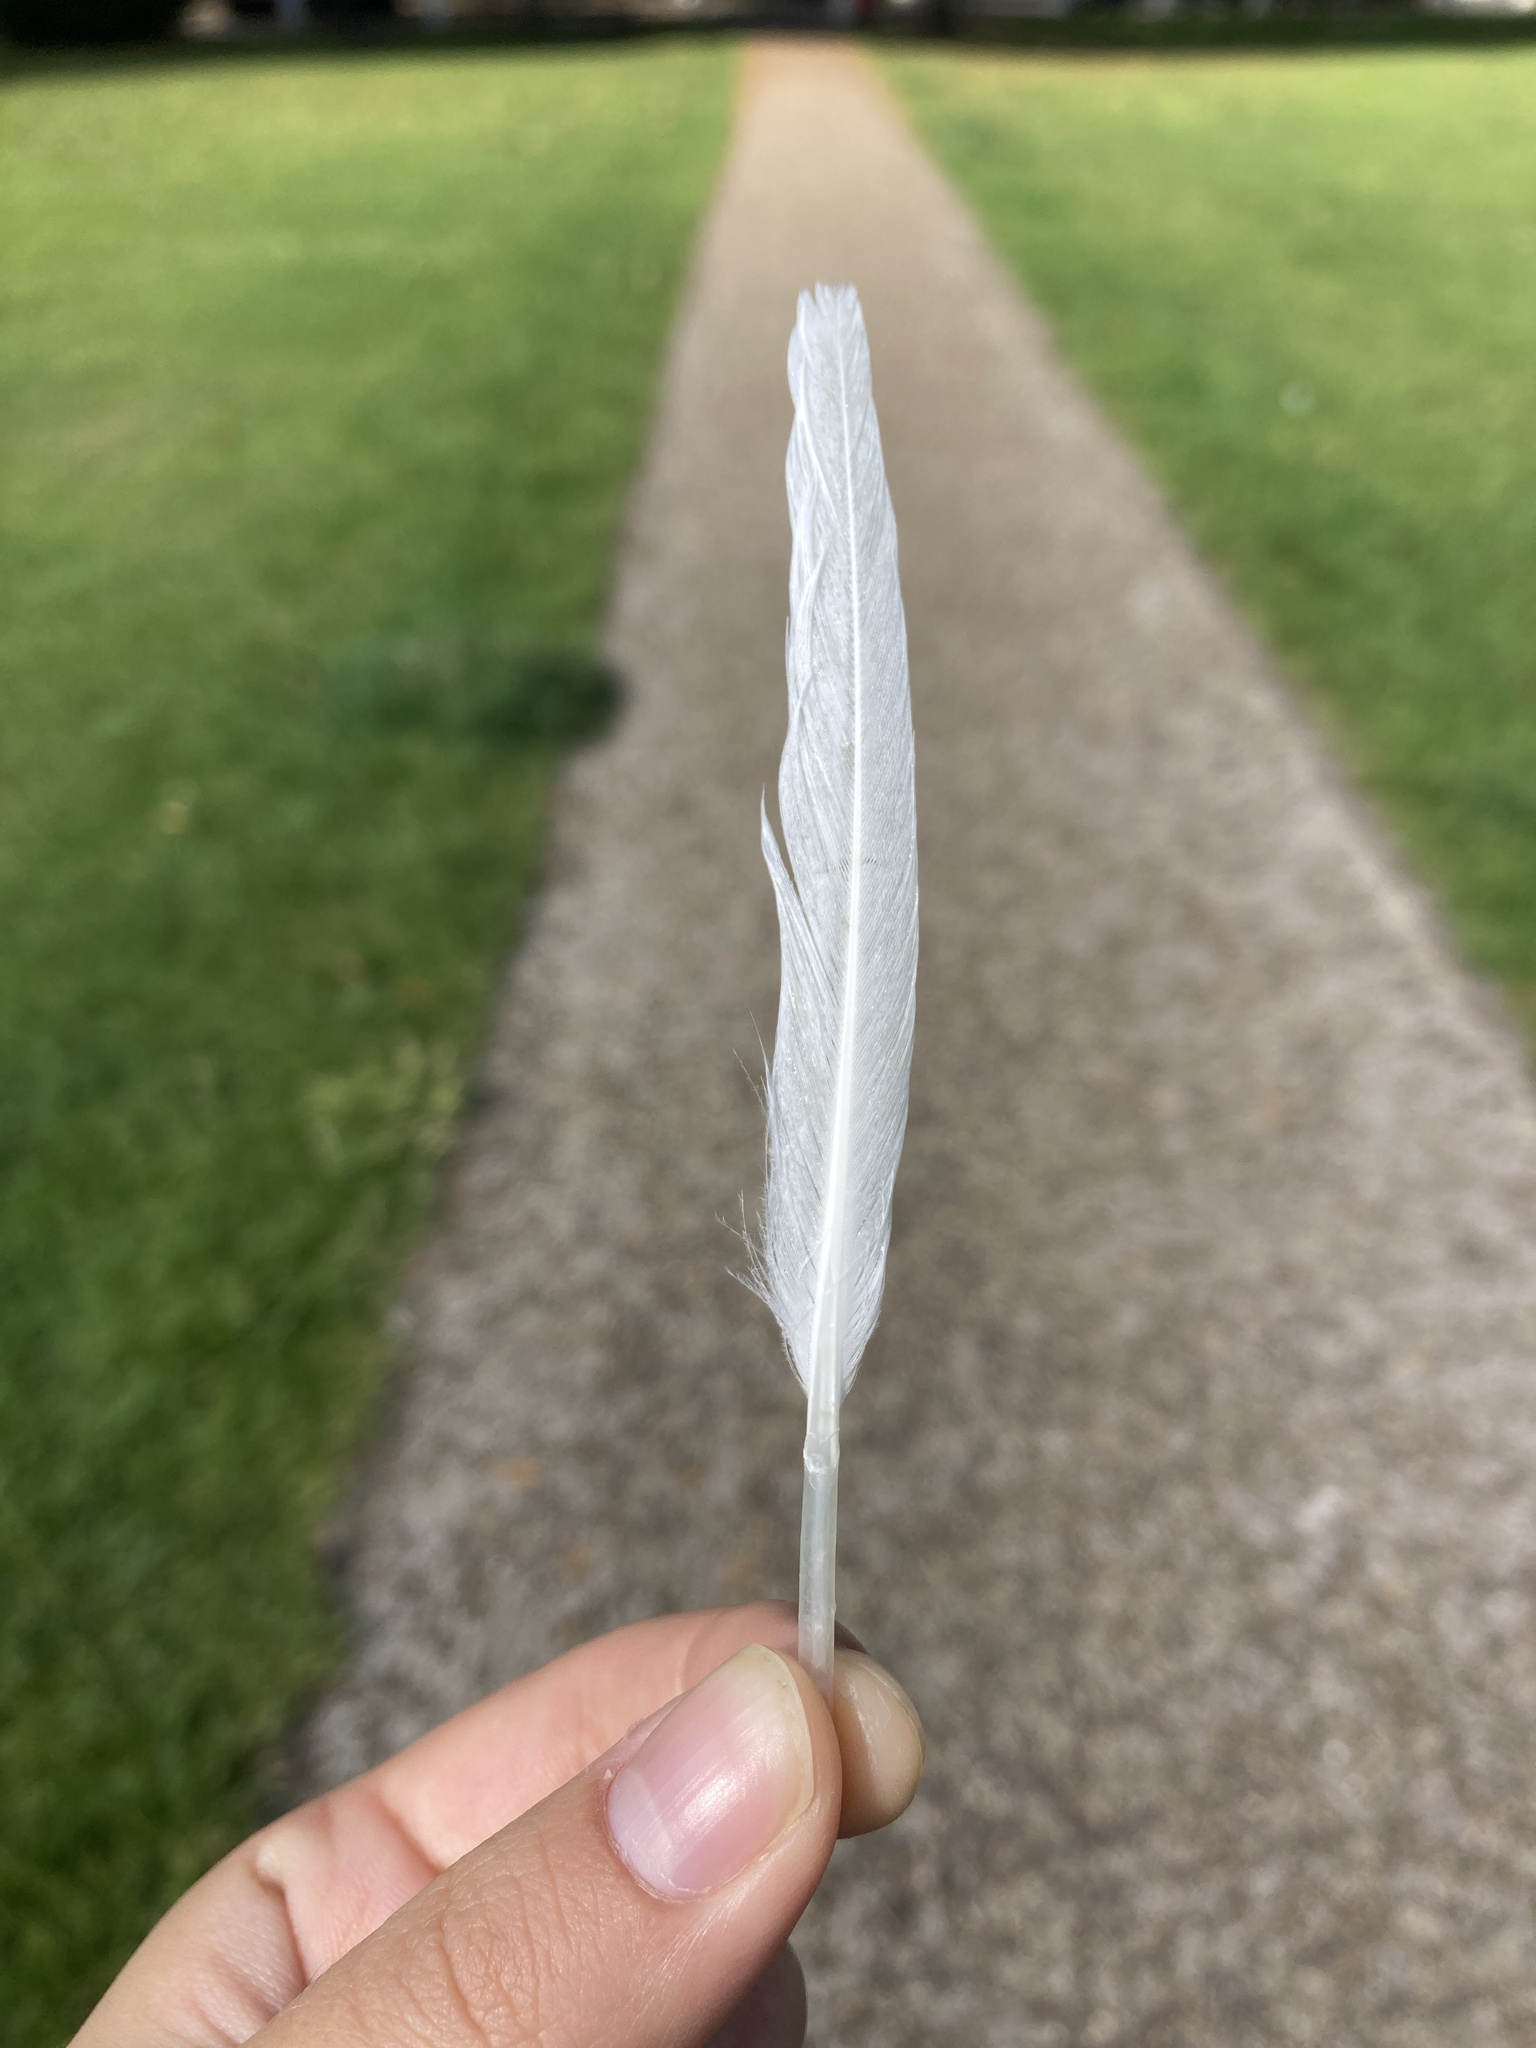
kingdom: Animalia
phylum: Chordata
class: Aves
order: Charadriiformes
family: Laridae
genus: Chroicocephalus
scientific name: Chroicocephalus ridibundus
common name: Black-headed gull
